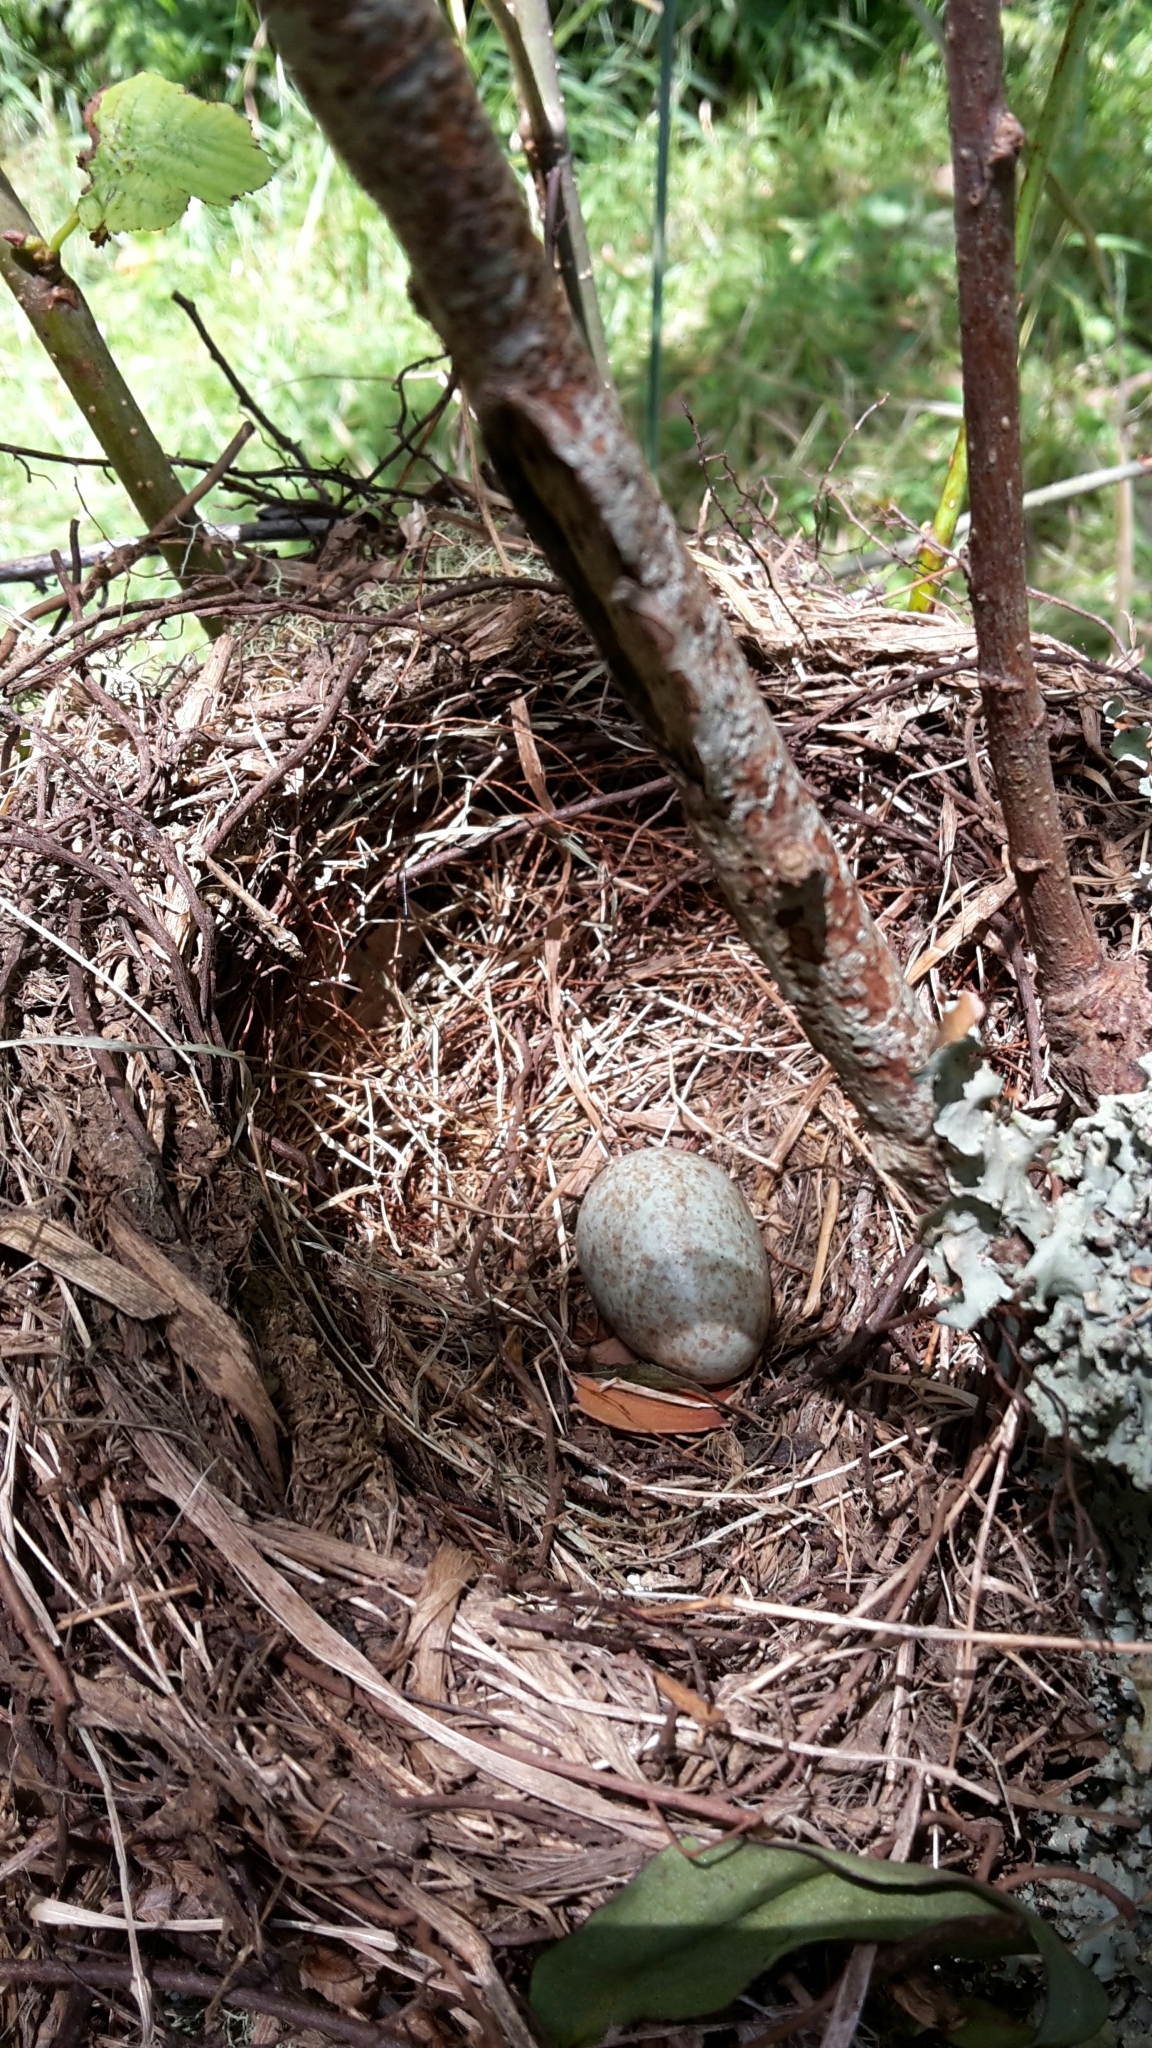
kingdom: Animalia
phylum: Chordata
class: Aves
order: Passeriformes
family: Turdidae
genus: Turdus
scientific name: Turdus merula
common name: Common blackbird
